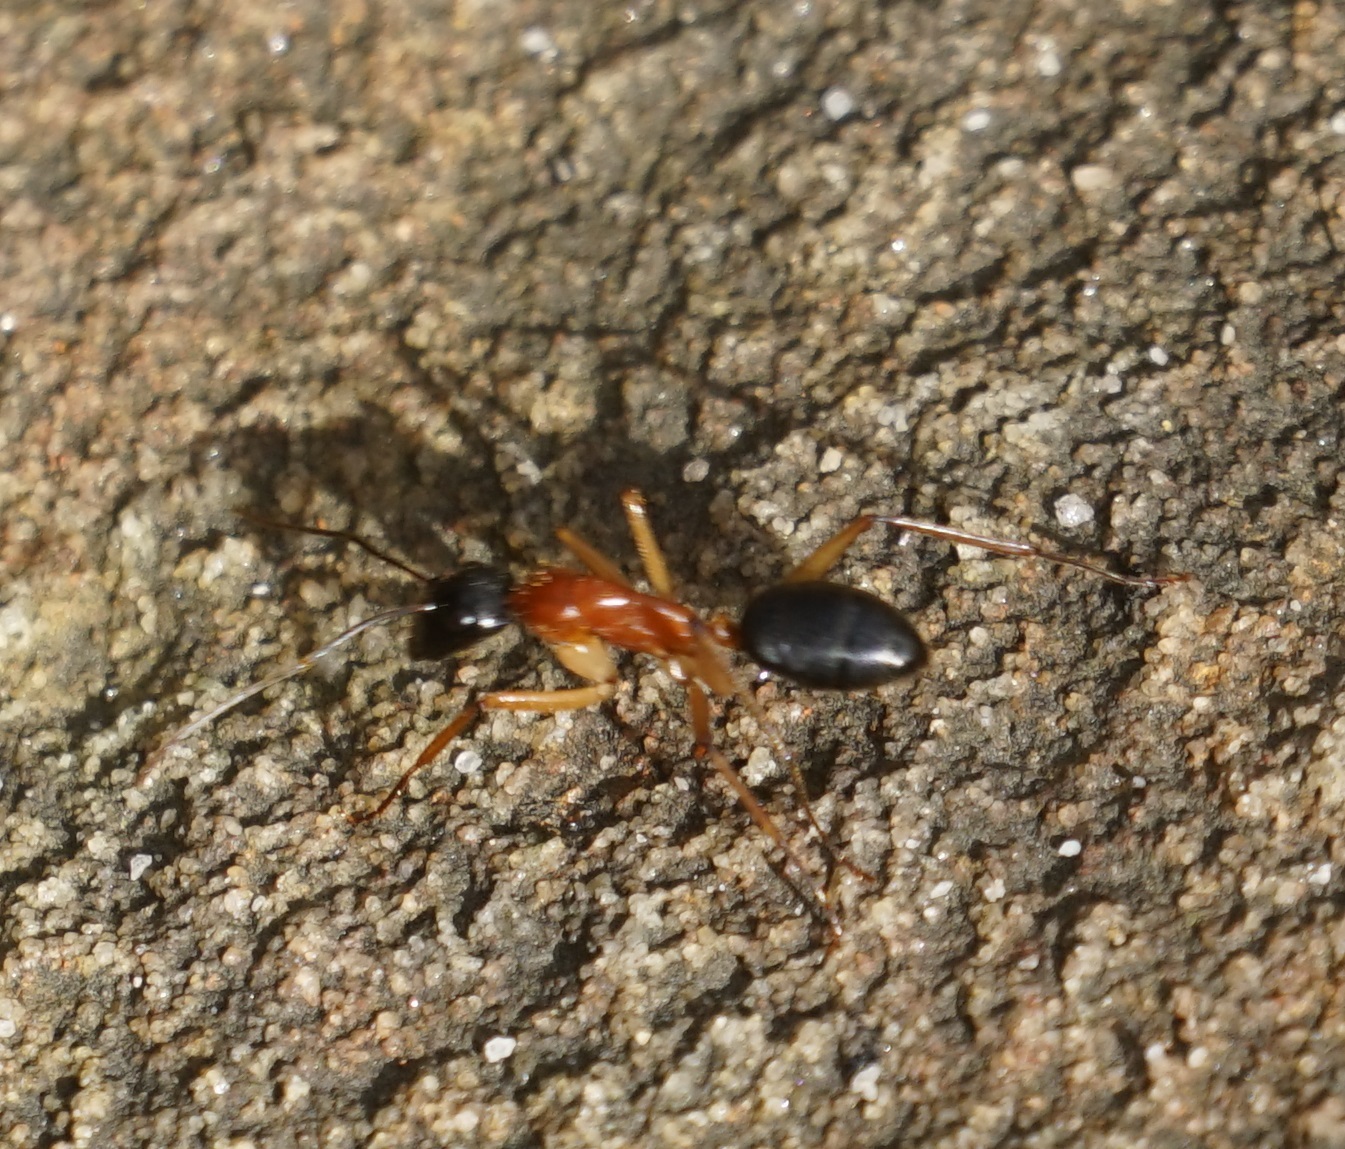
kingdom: Animalia
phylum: Arthropoda
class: Insecta
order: Hymenoptera
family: Formicidae
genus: Camponotus
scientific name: Camponotus nigriceps
